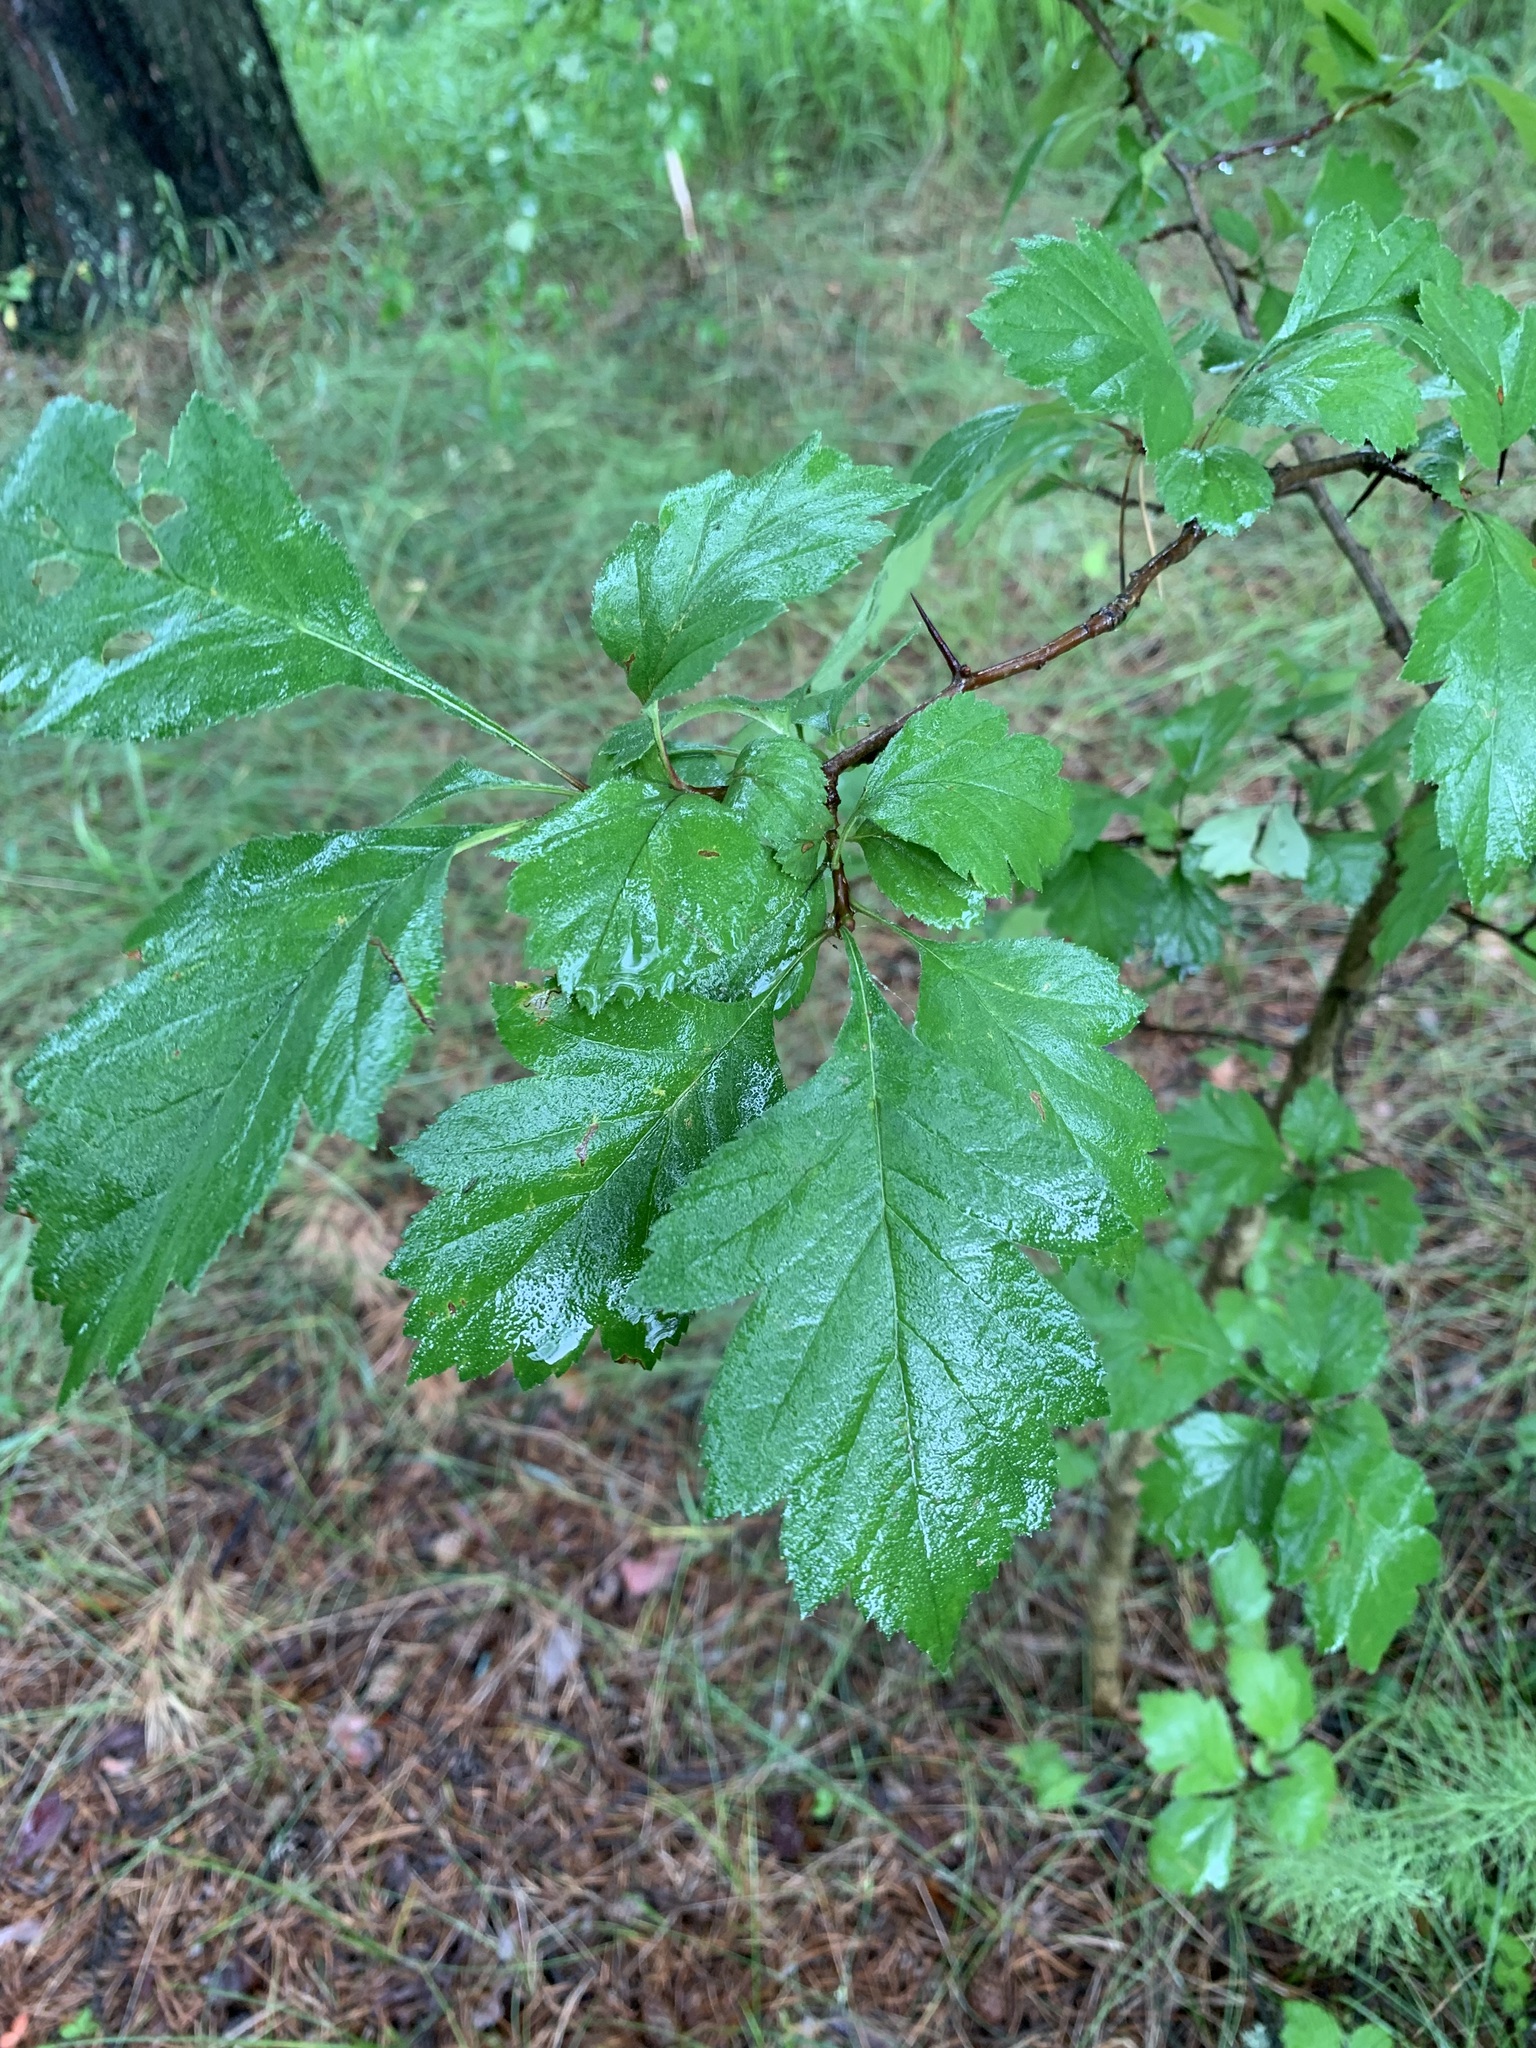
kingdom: Plantae
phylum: Tracheophyta
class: Magnoliopsida
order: Rosales
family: Rosaceae
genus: Crataegus
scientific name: Crataegus sanguinea
